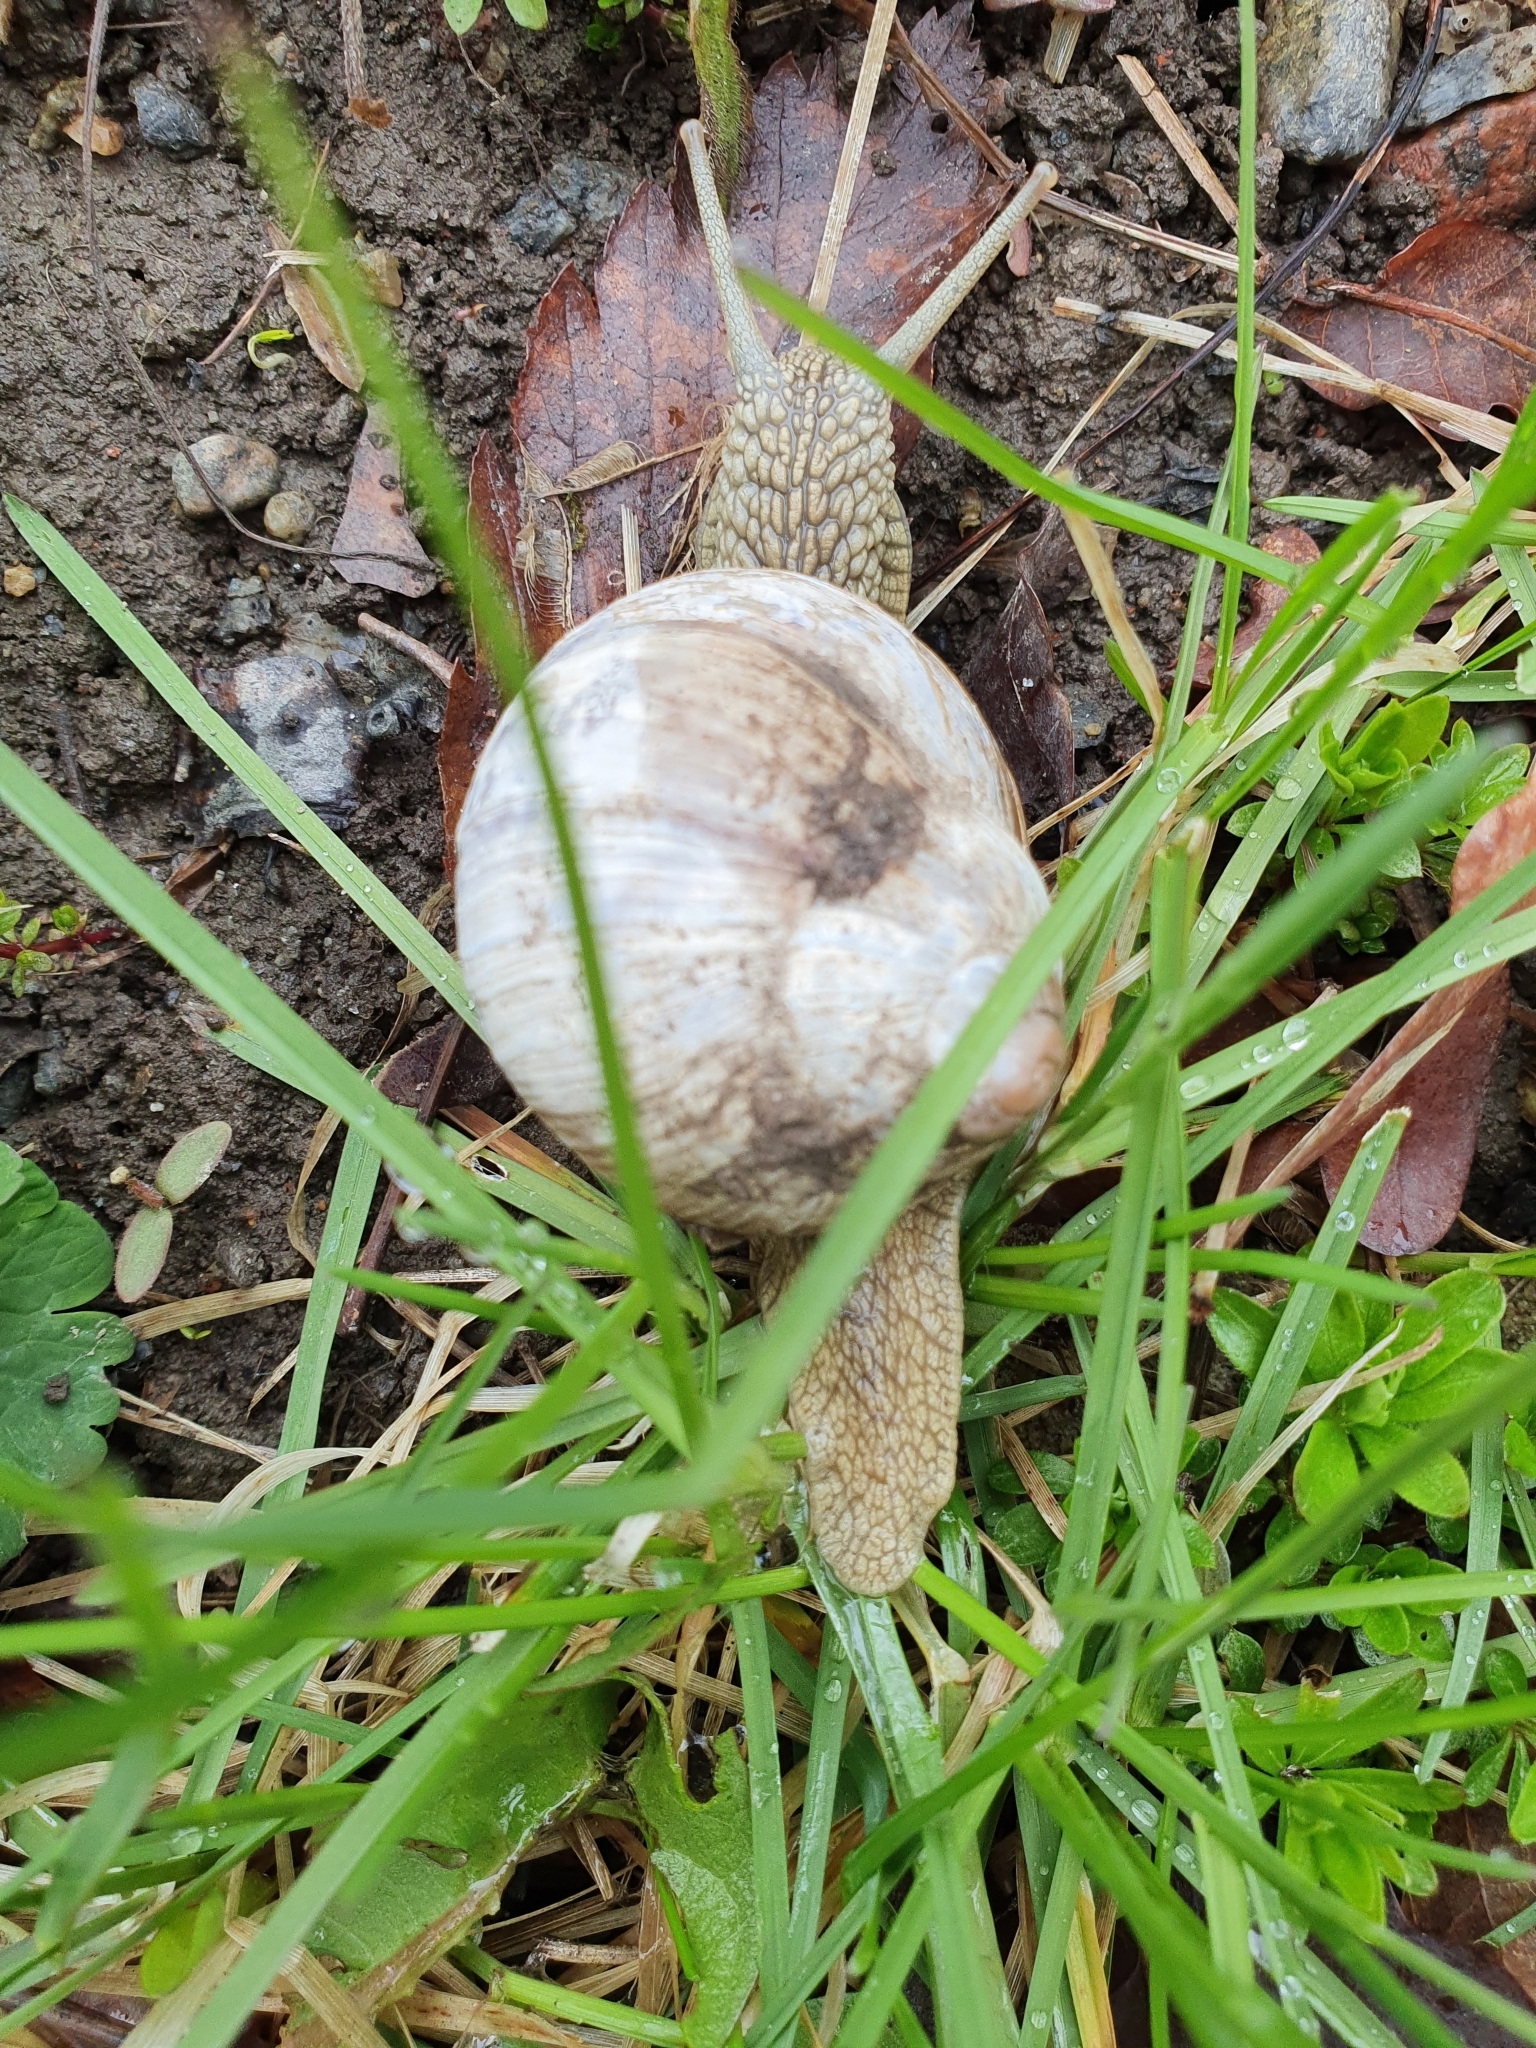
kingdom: Animalia
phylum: Mollusca
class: Gastropoda
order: Stylommatophora
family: Helicidae
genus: Helix
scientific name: Helix pomatia
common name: Roman snail
